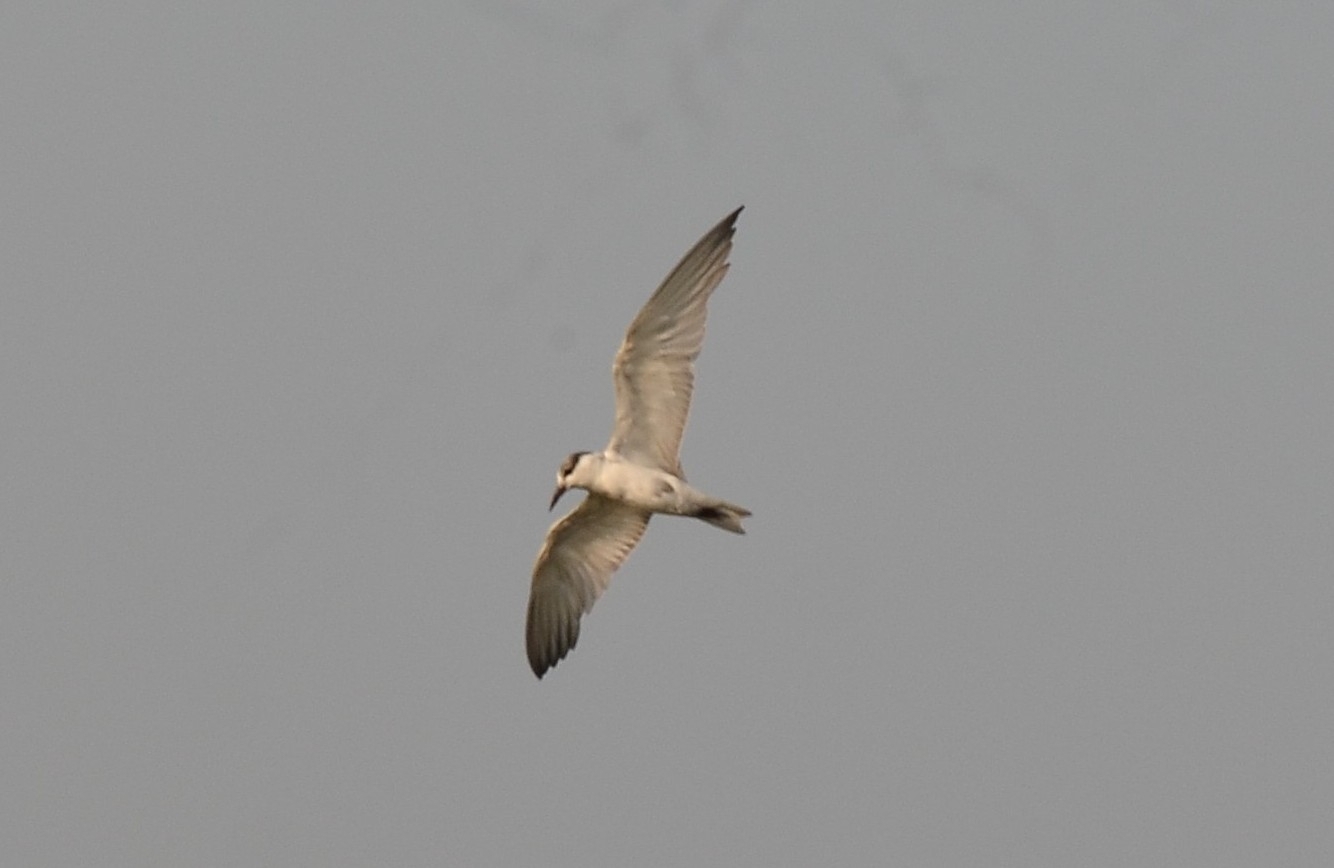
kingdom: Animalia
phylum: Chordata
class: Aves
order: Charadriiformes
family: Laridae
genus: Chlidonias
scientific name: Chlidonias hybrida
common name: Whiskered tern
